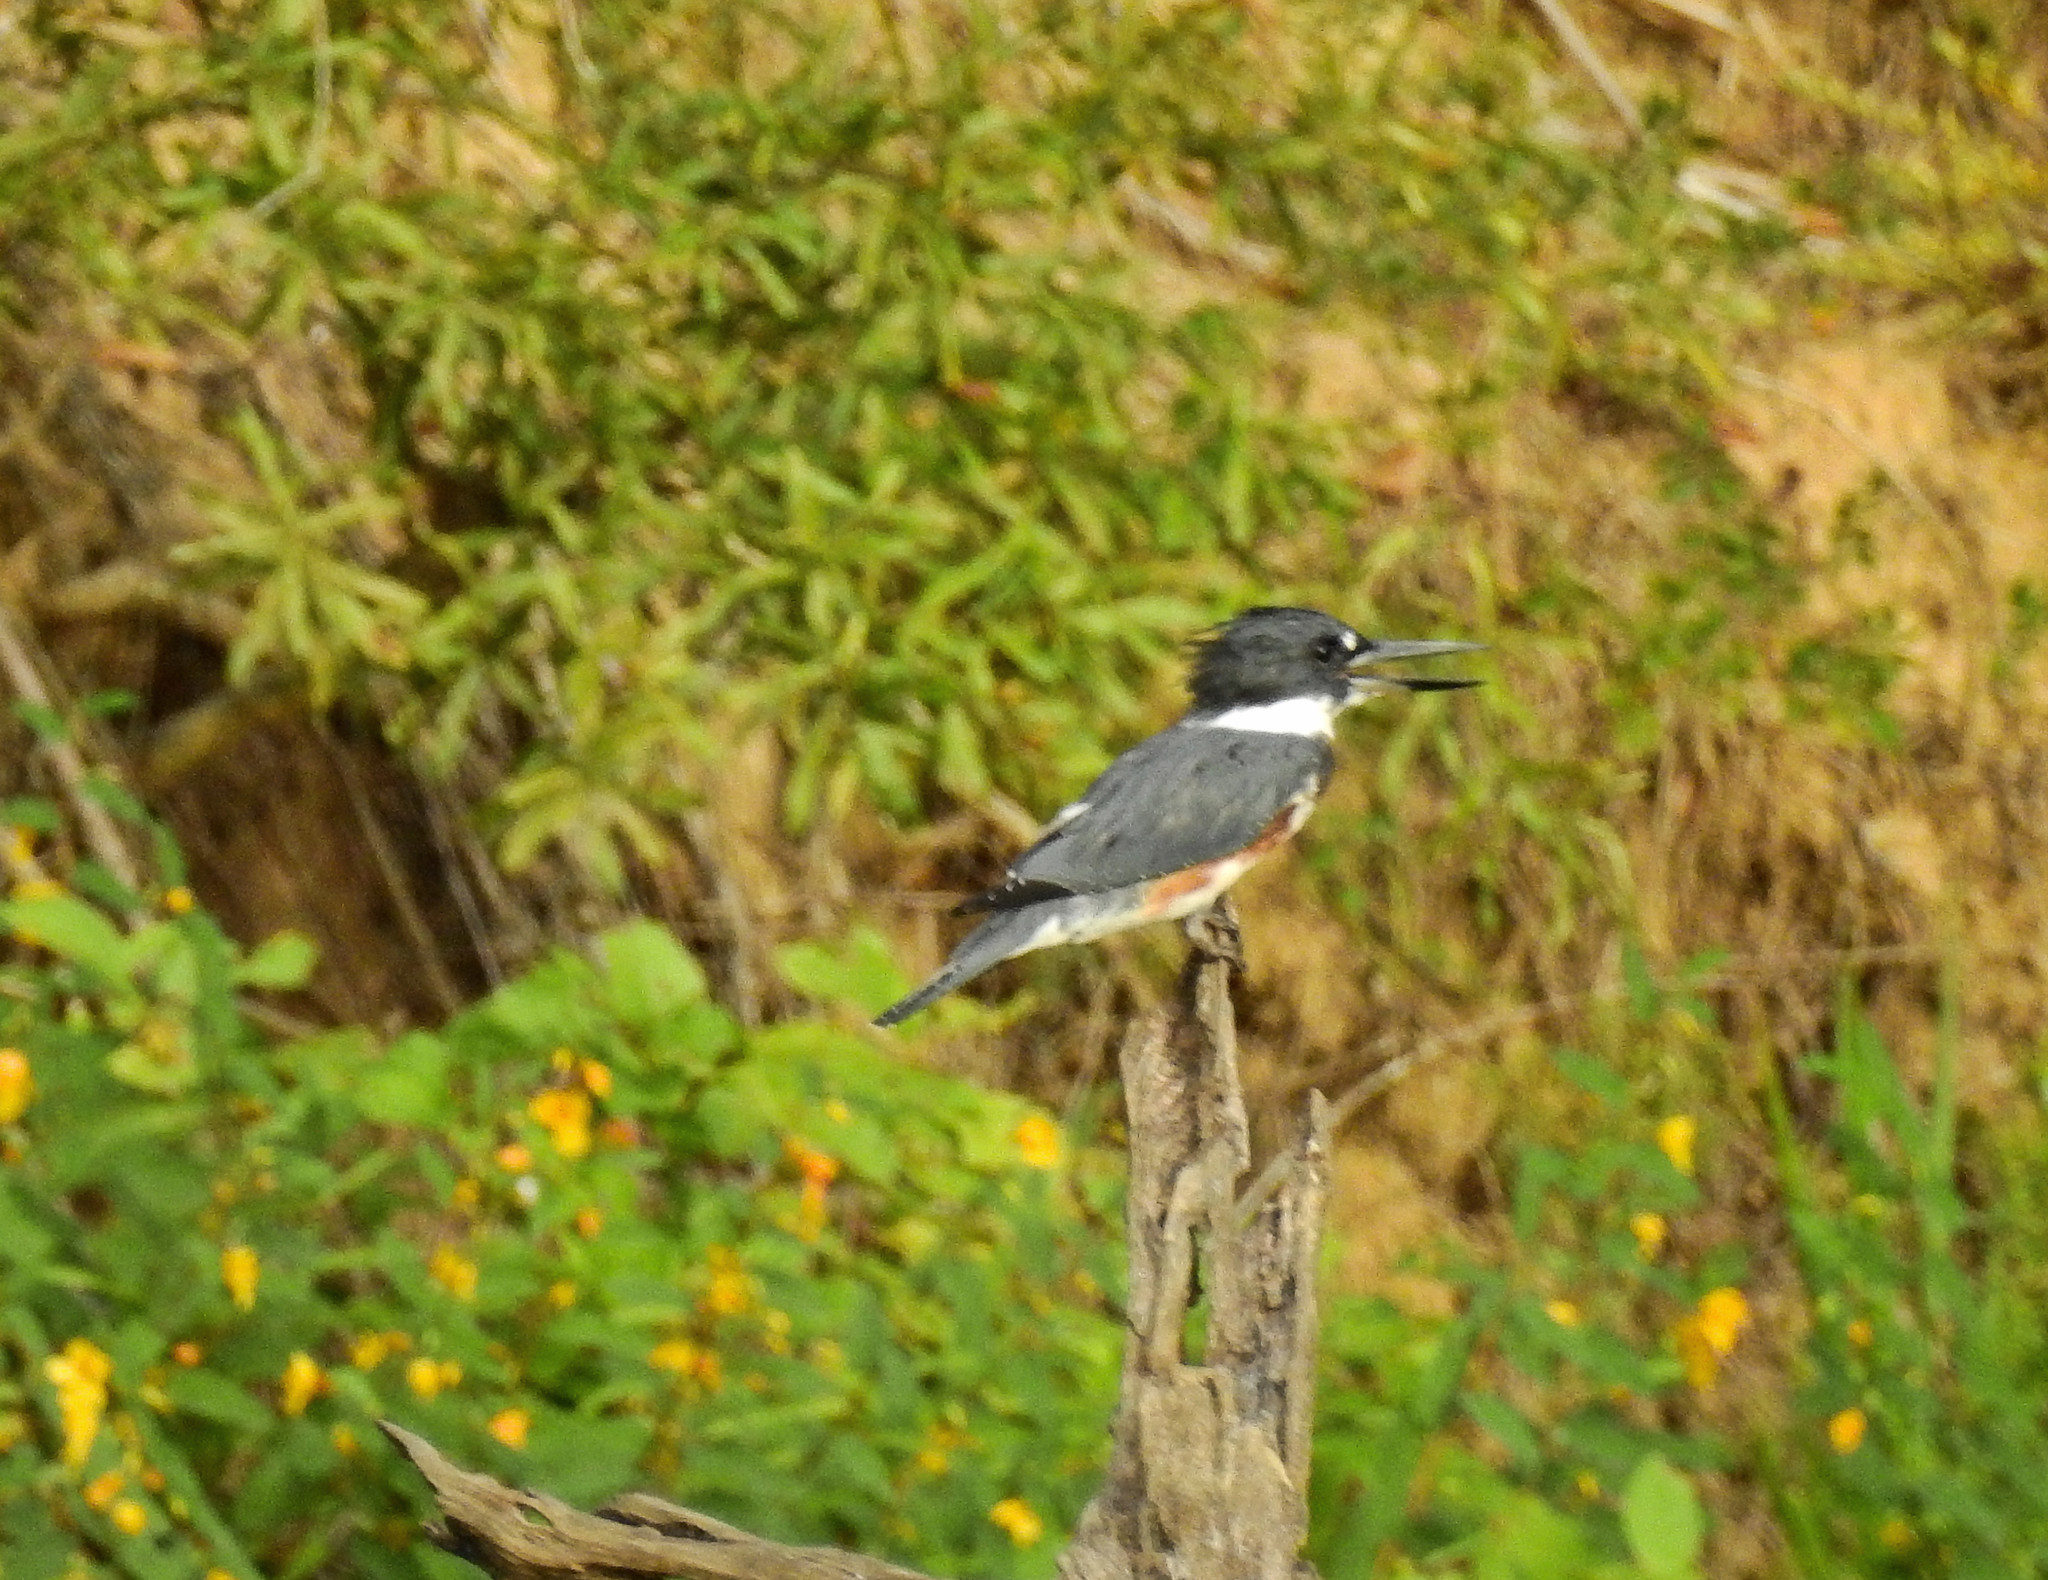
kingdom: Animalia
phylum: Chordata
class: Aves
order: Coraciiformes
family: Alcedinidae
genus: Megaceryle
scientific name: Megaceryle alcyon
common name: Belted kingfisher
